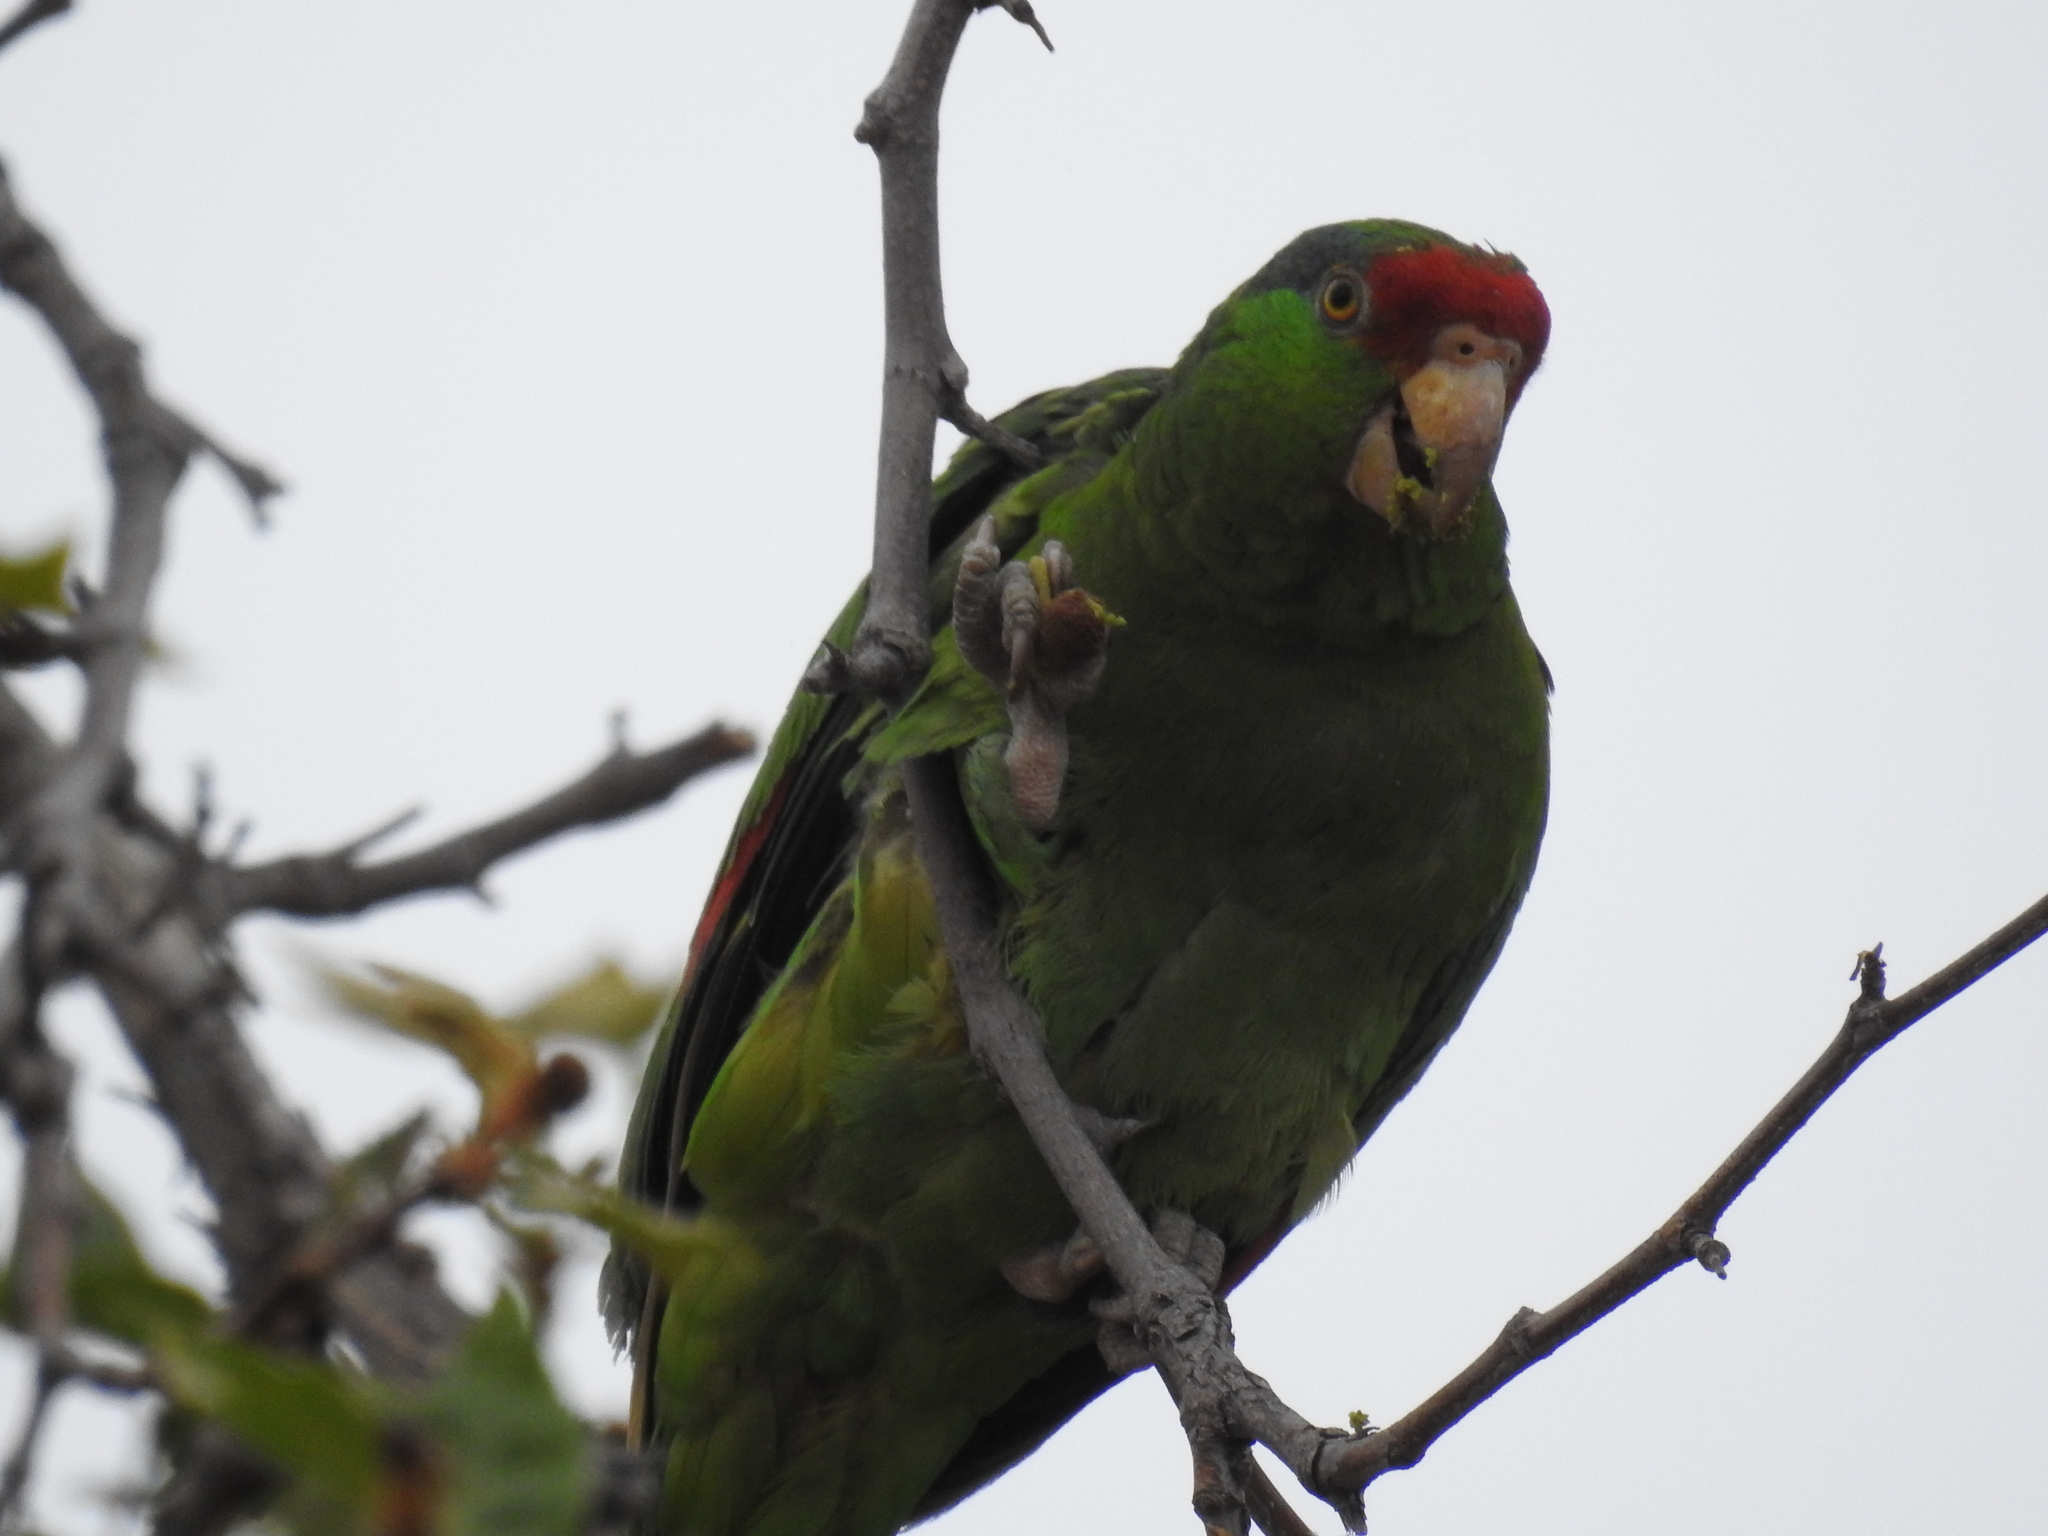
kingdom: Animalia
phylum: Chordata
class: Aves
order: Psittaciformes
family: Psittacidae
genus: Amazona
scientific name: Amazona viridigenalis
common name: Red-crowned amazon
